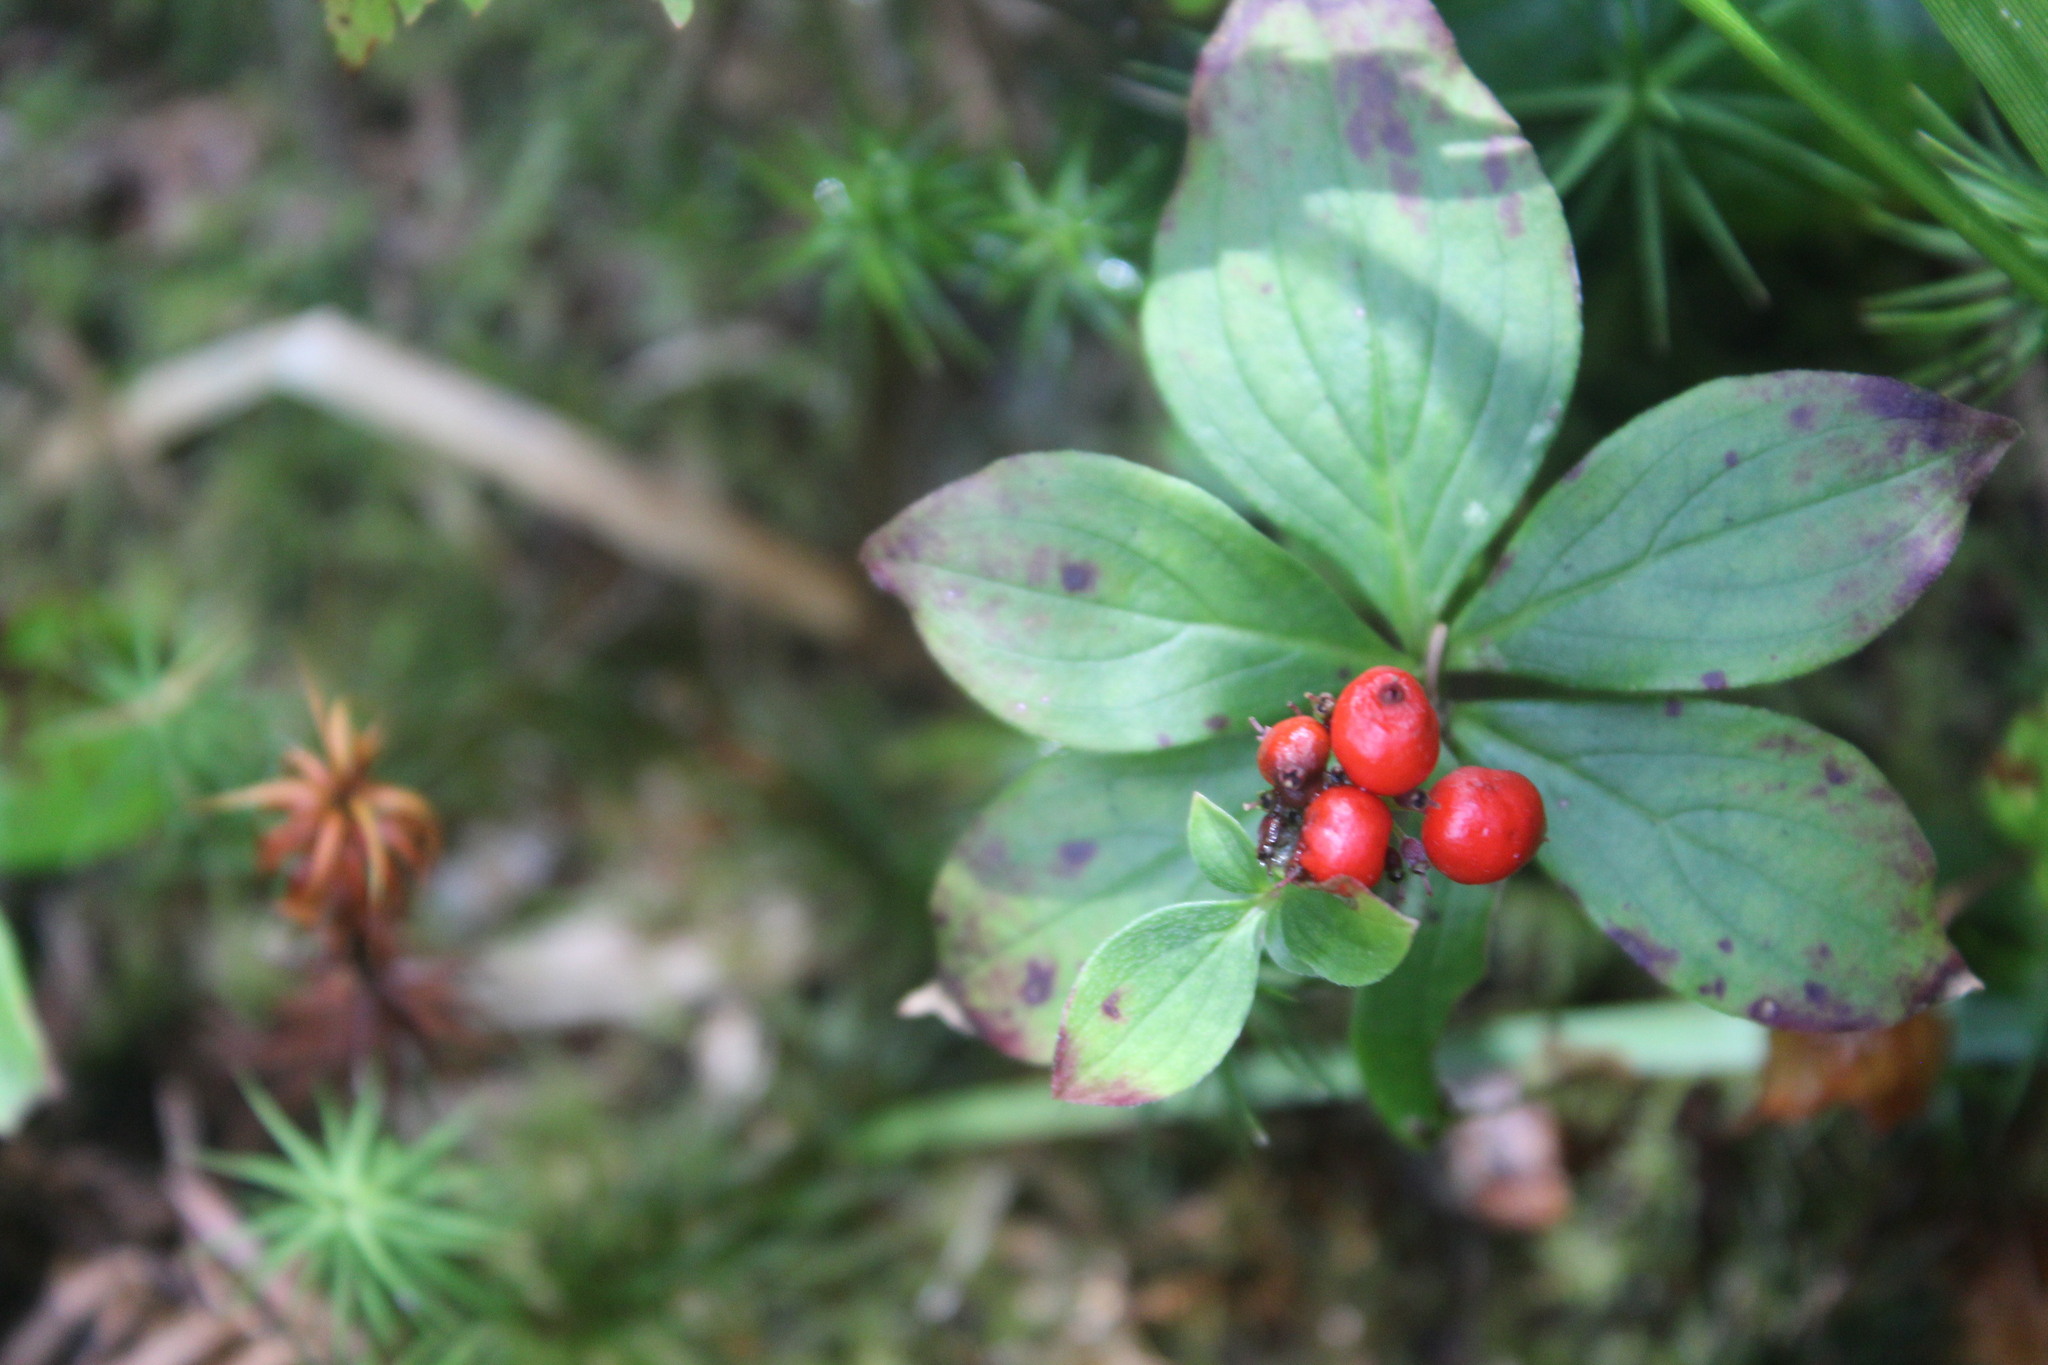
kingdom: Plantae
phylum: Tracheophyta
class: Magnoliopsida
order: Cornales
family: Cornaceae
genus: Cornus
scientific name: Cornus canadensis
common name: Creeping dogwood
